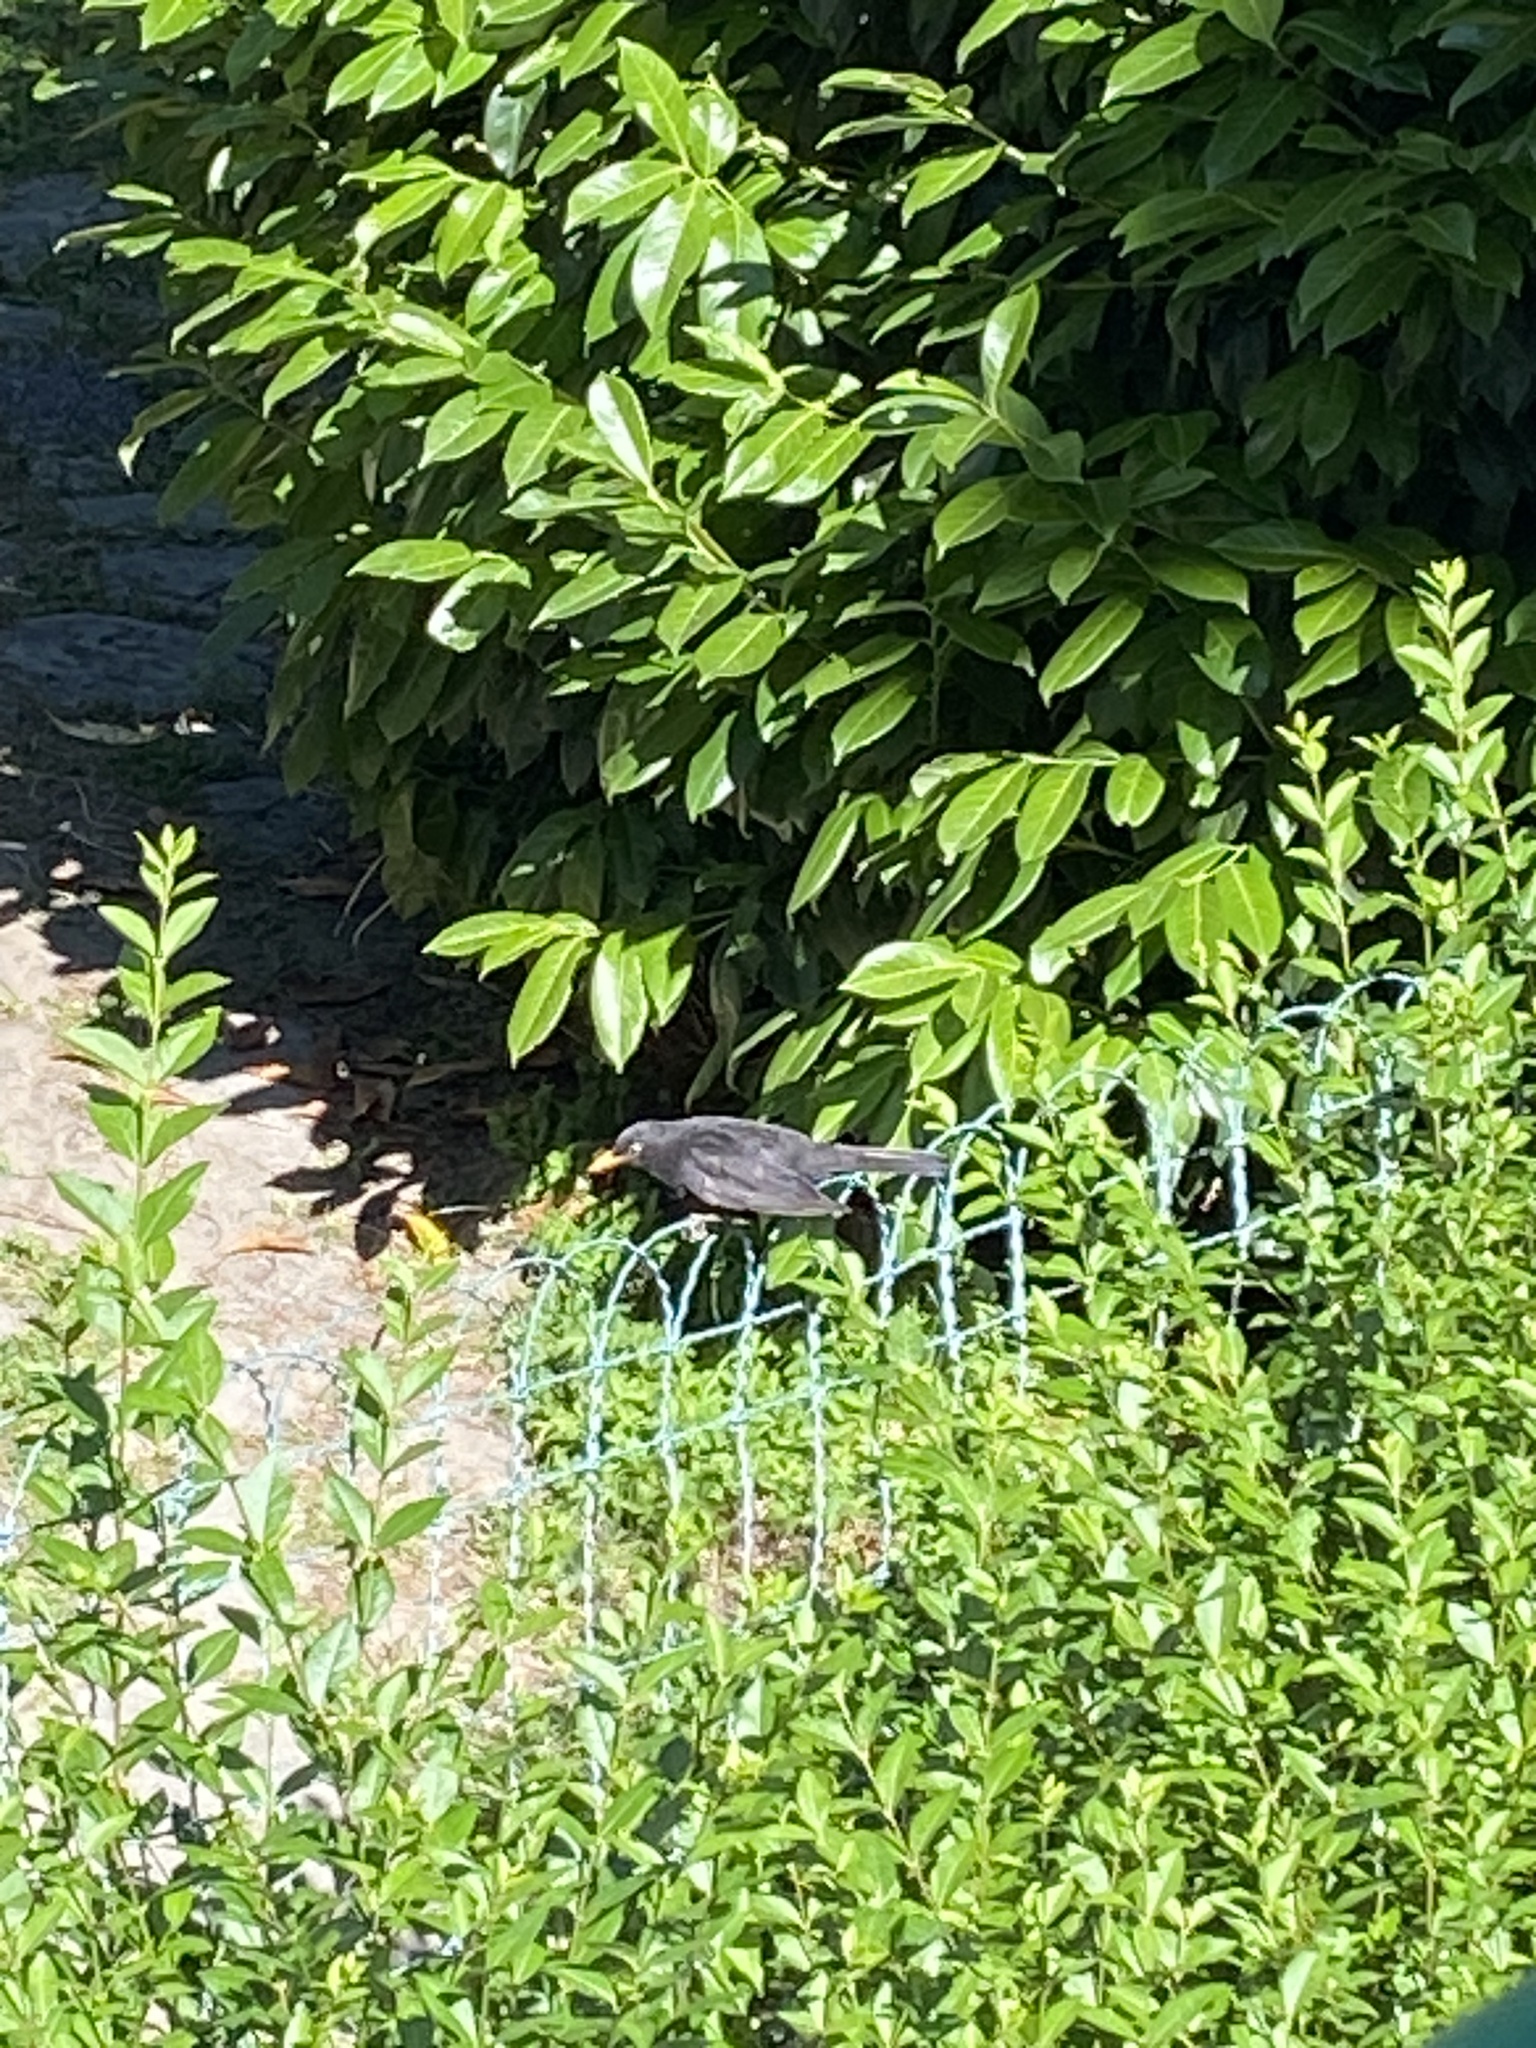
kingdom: Animalia
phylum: Chordata
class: Aves
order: Passeriformes
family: Turdidae
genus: Turdus
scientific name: Turdus merula
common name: Common blackbird
